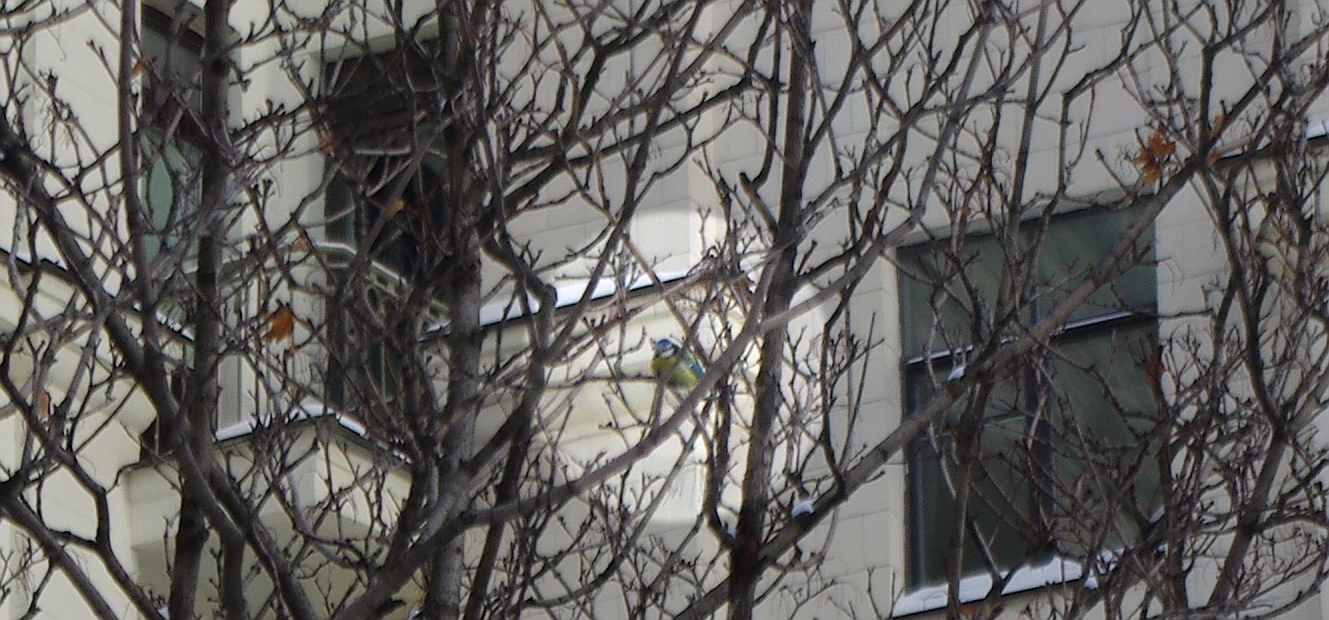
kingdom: Animalia
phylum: Chordata
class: Aves
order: Passeriformes
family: Paridae
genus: Cyanistes
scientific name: Cyanistes caeruleus
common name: Eurasian blue tit
